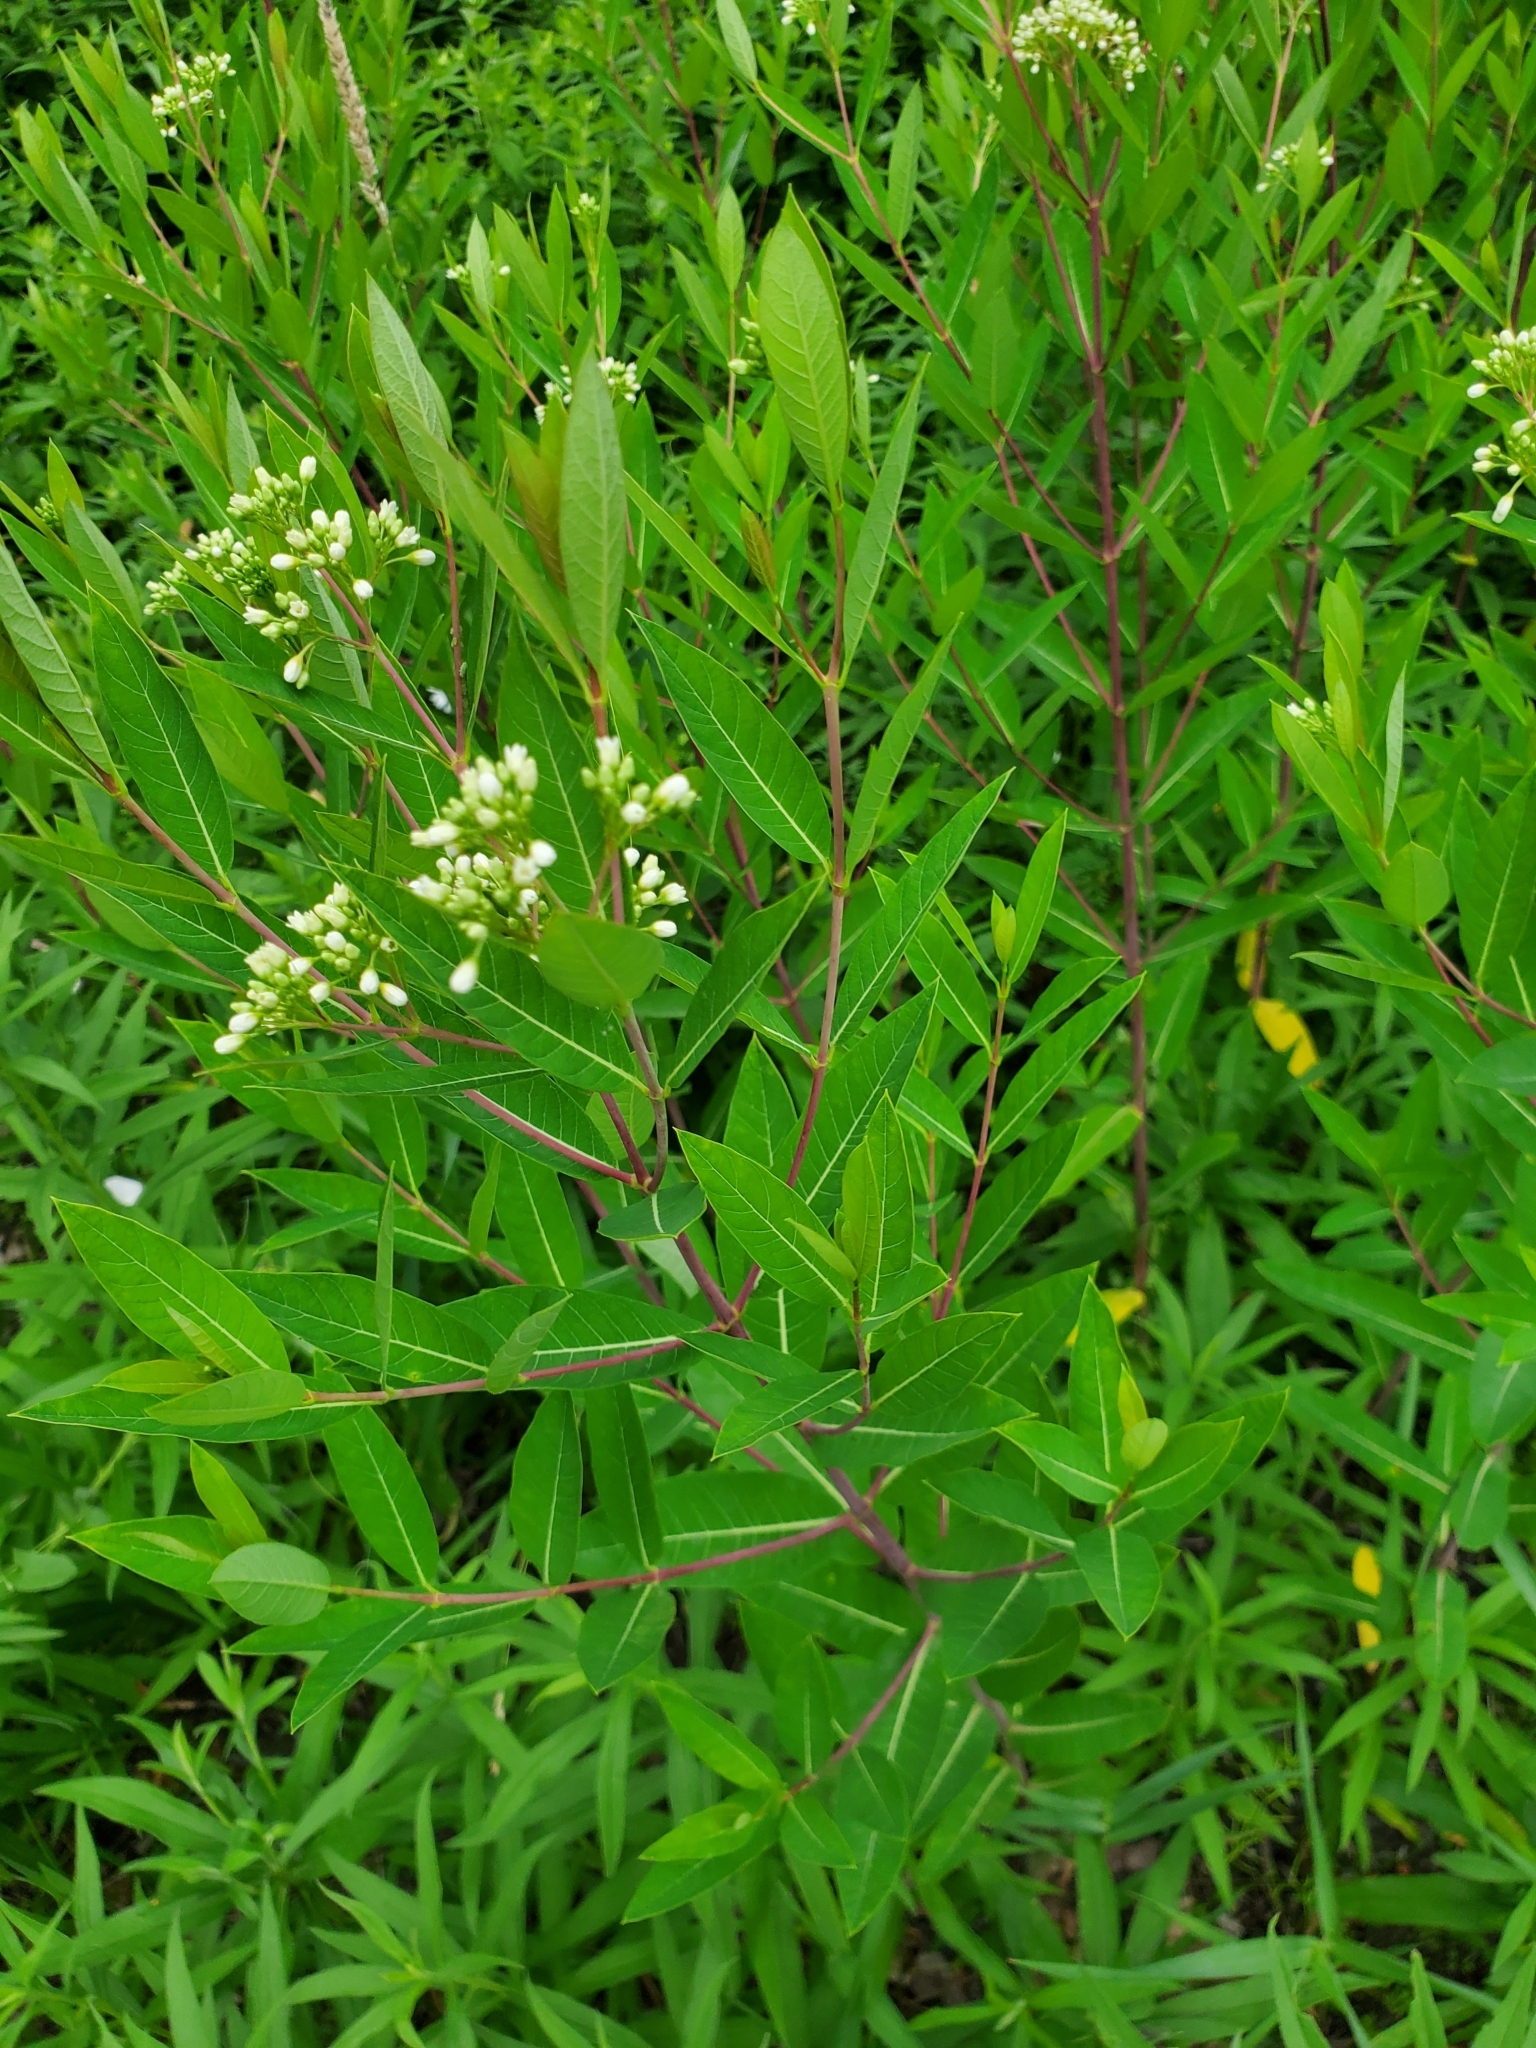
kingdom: Plantae
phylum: Tracheophyta
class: Magnoliopsida
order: Gentianales
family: Apocynaceae
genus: Apocynum
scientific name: Apocynum cannabinum
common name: Hemp dogbane
